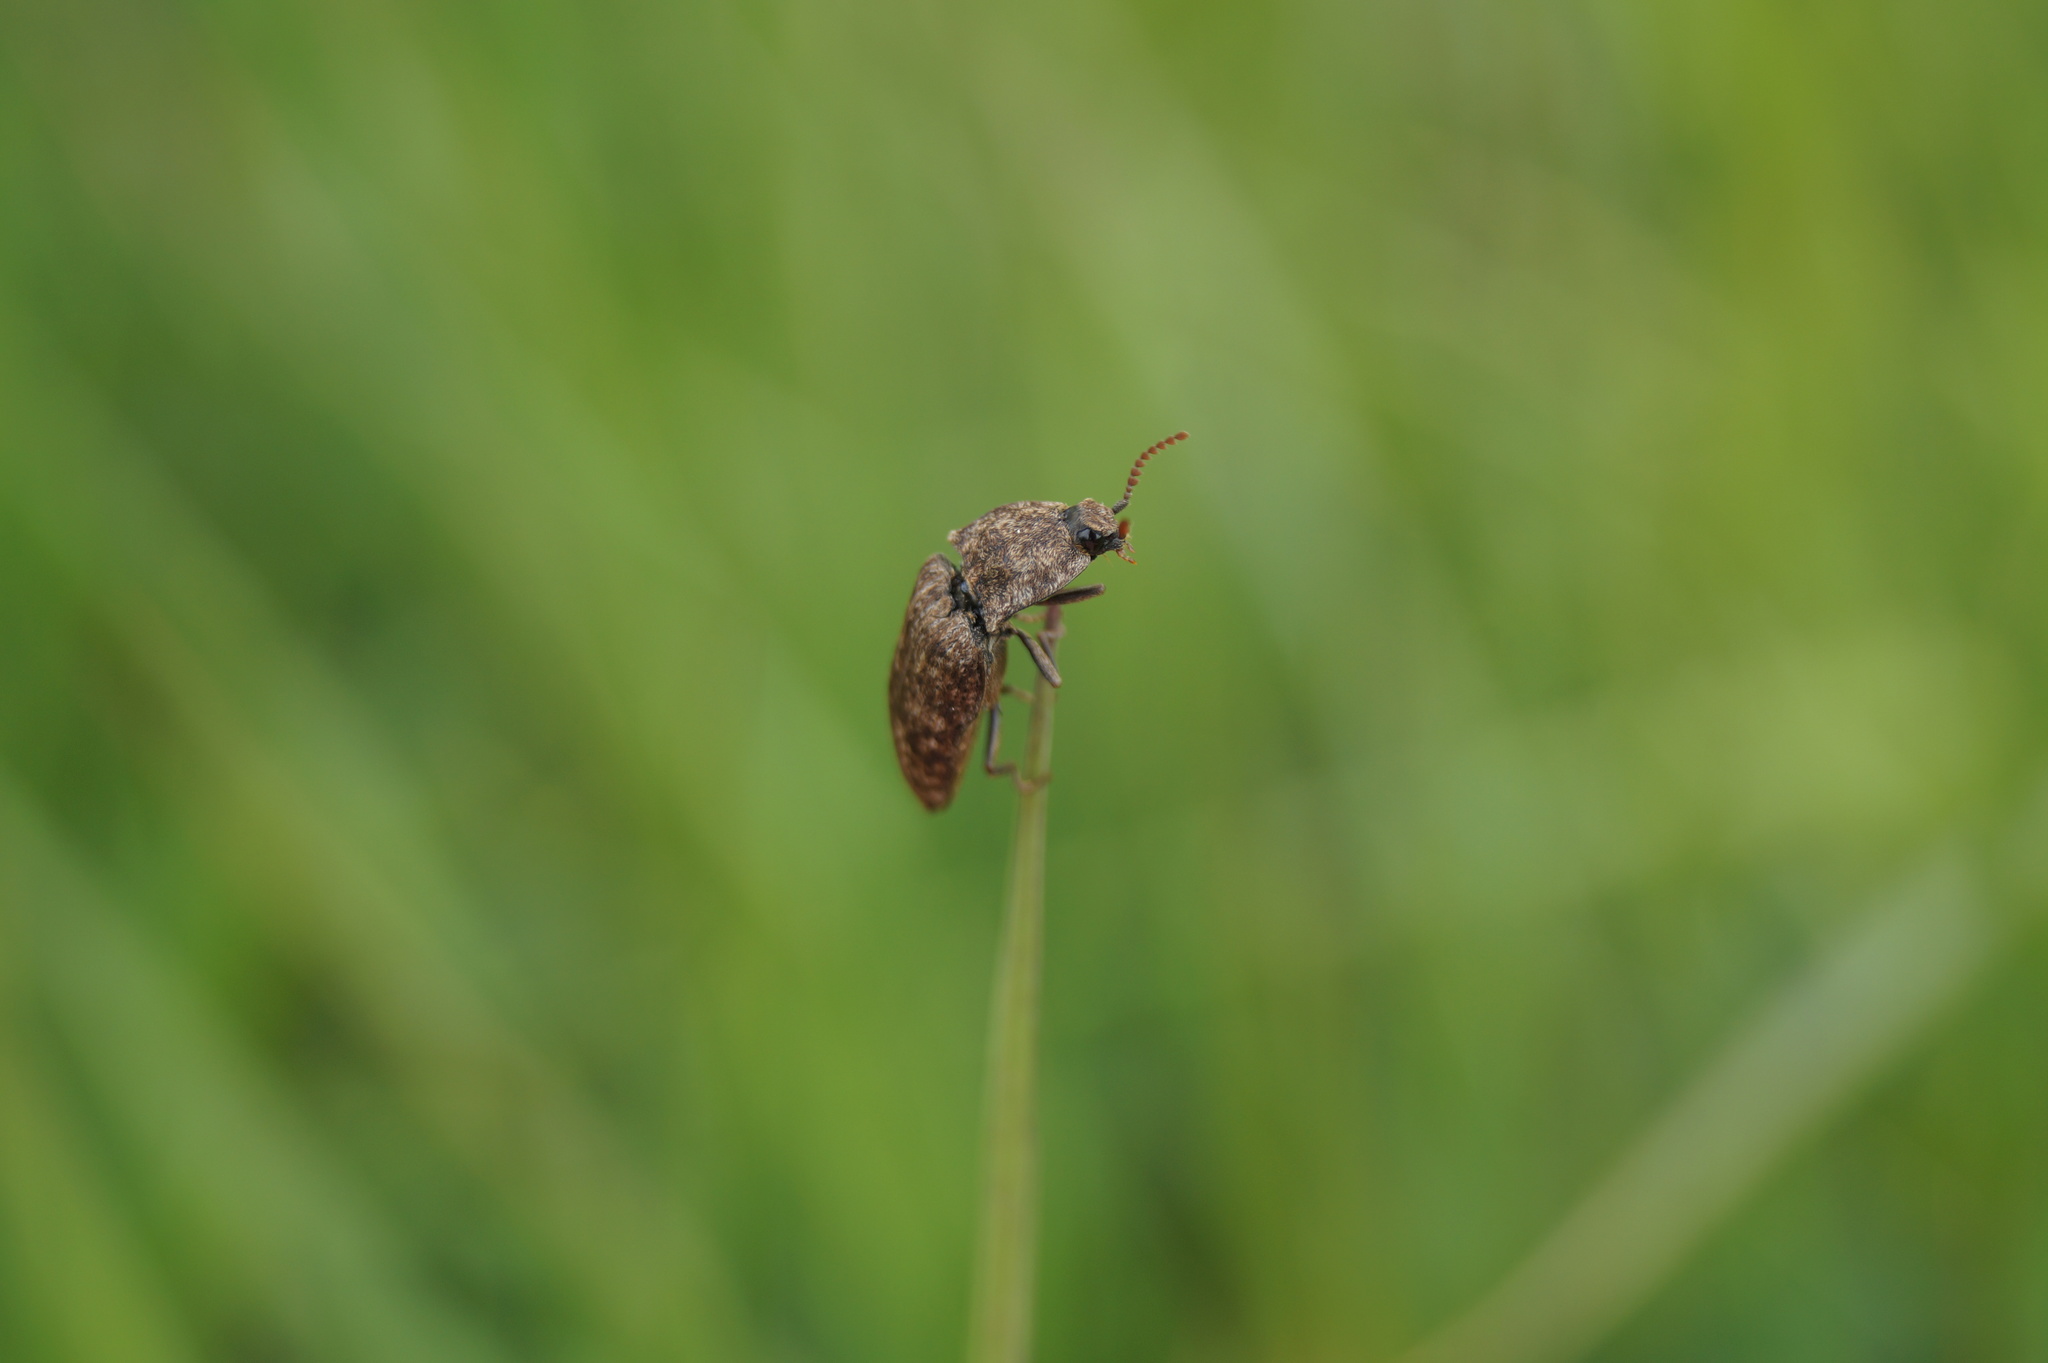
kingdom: Animalia
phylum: Arthropoda
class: Insecta
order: Coleoptera
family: Elateridae
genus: Agrypnus
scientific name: Agrypnus murinus
